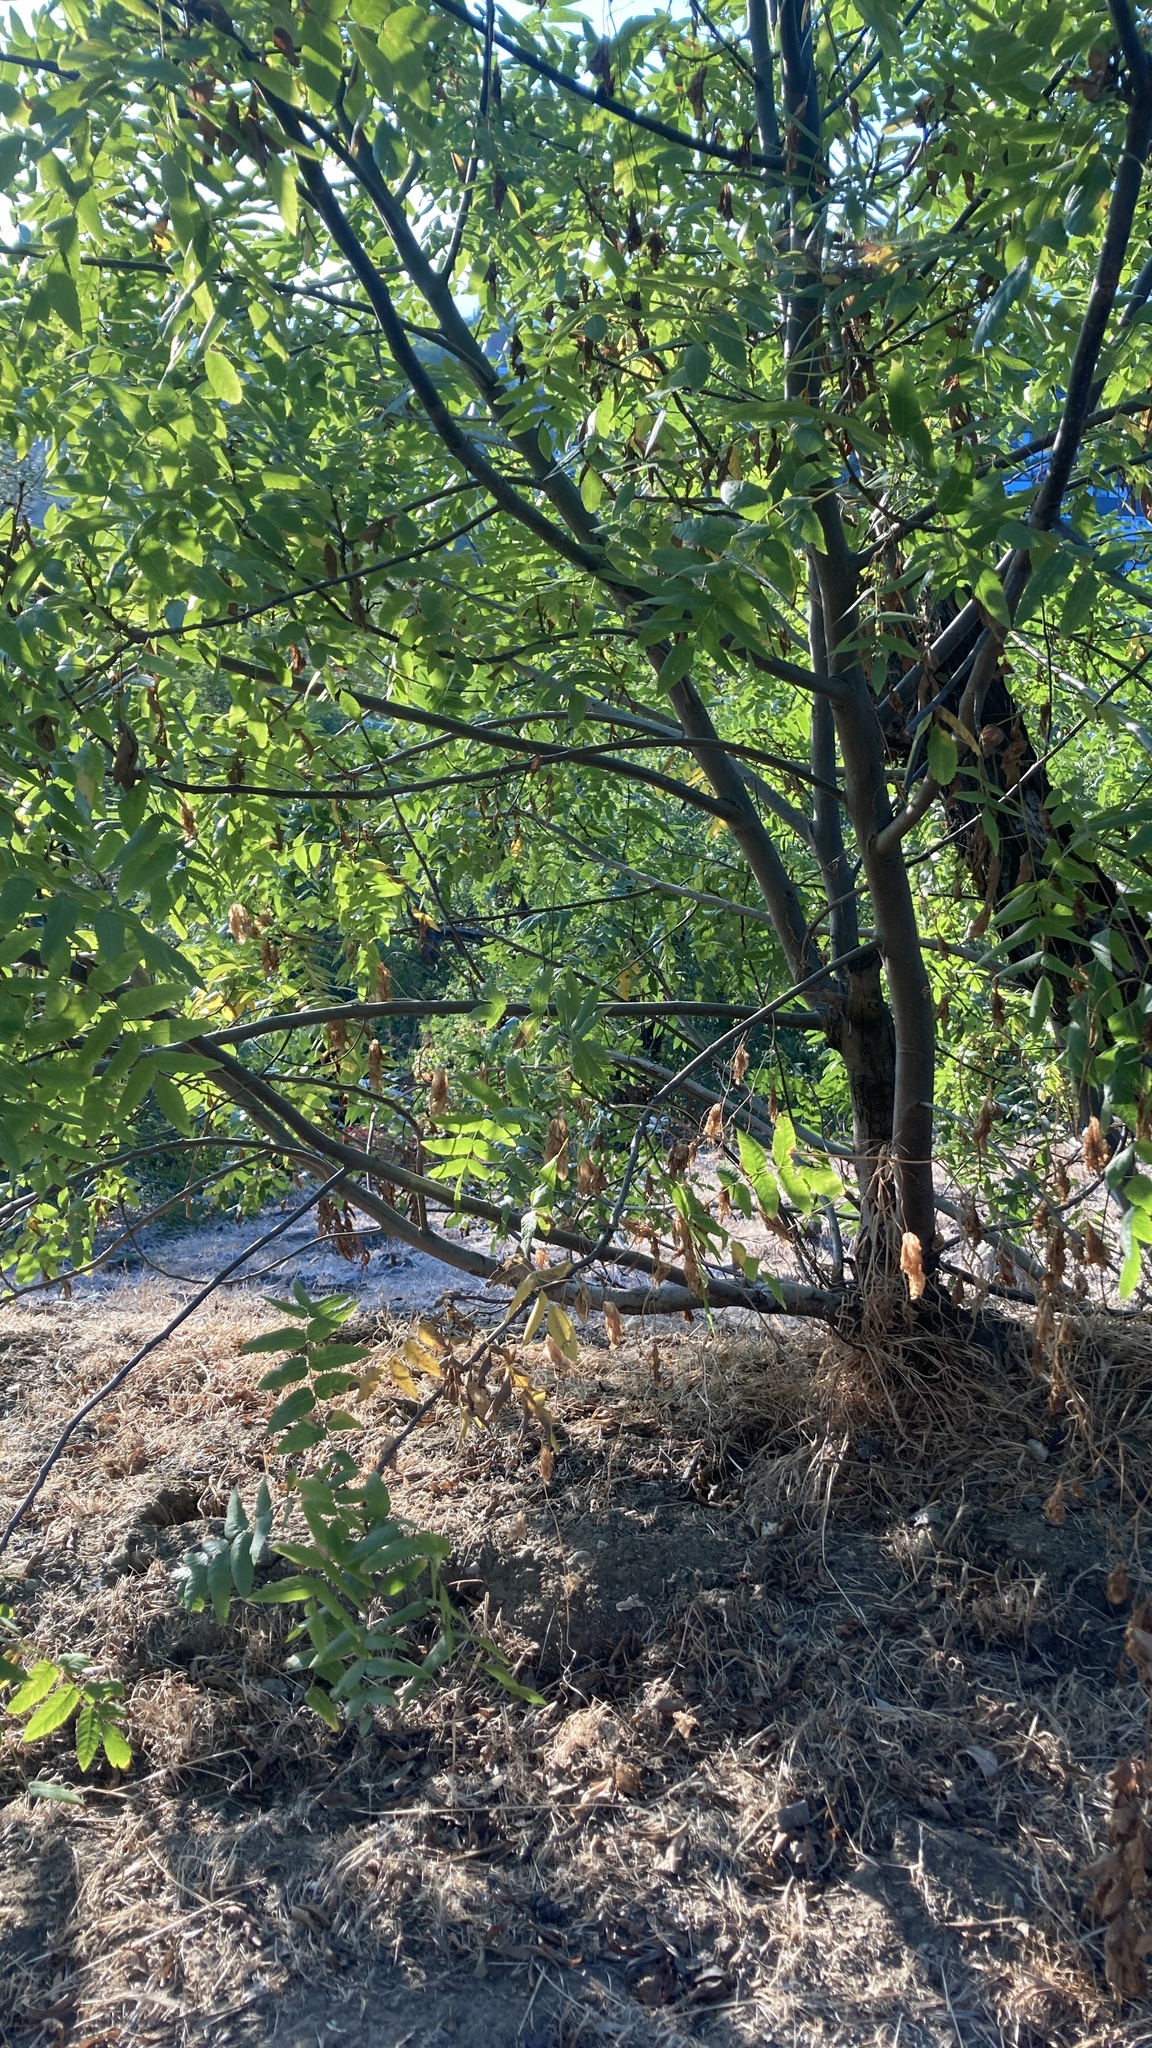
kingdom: Plantae
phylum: Tracheophyta
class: Magnoliopsida
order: Fagales
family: Juglandaceae
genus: Juglans
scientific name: Juglans californica
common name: Southern california black walnut
